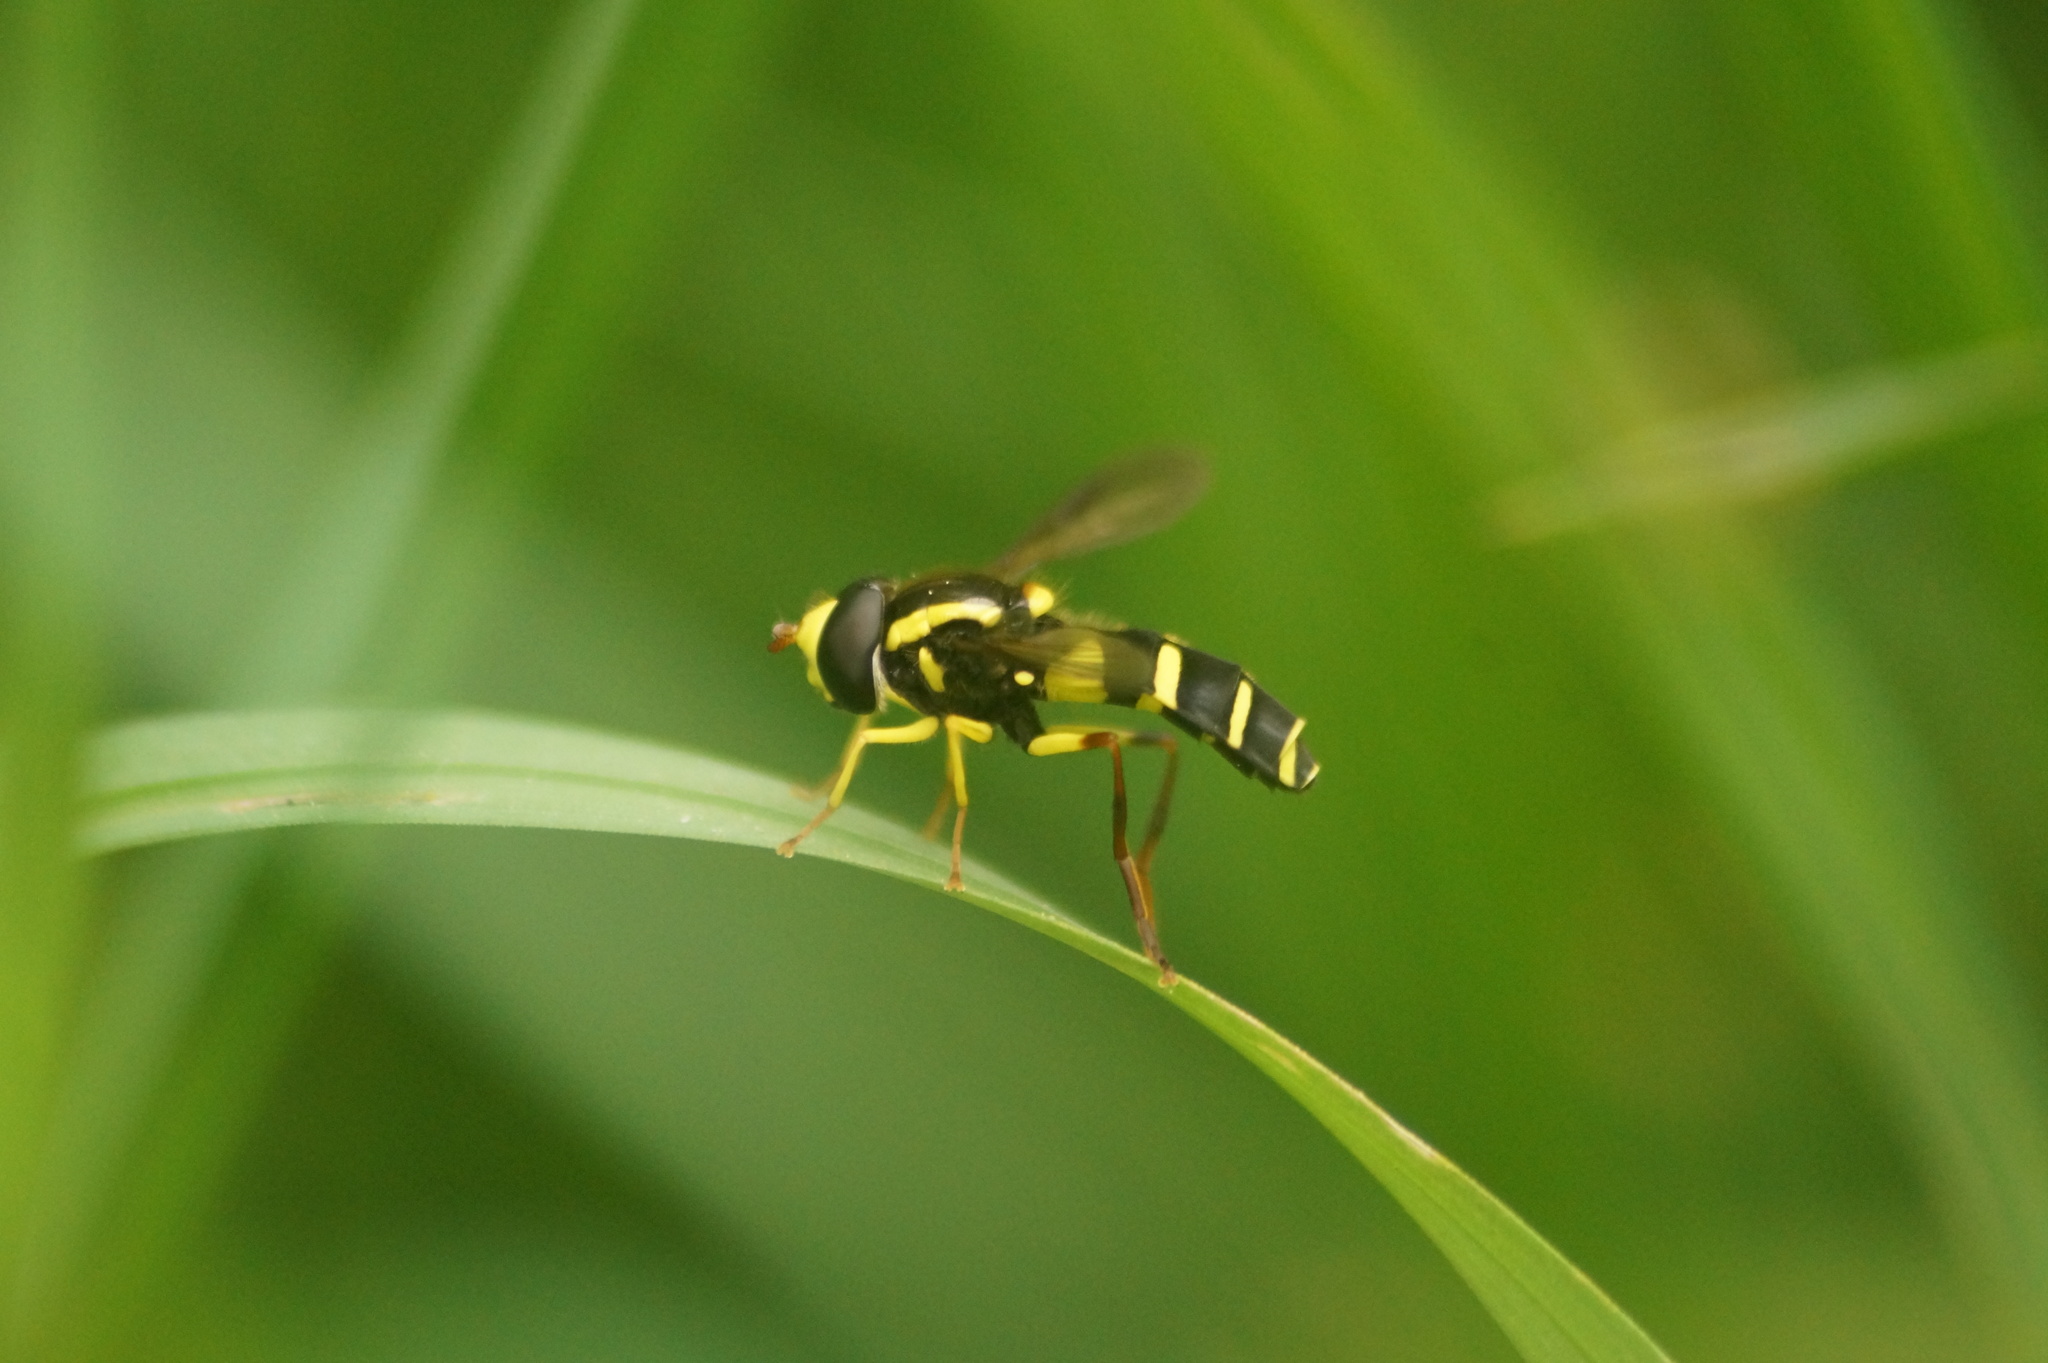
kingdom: Animalia
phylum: Arthropoda
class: Insecta
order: Diptera
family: Syrphidae
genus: Philhelius
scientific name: Philhelius pedissequum
